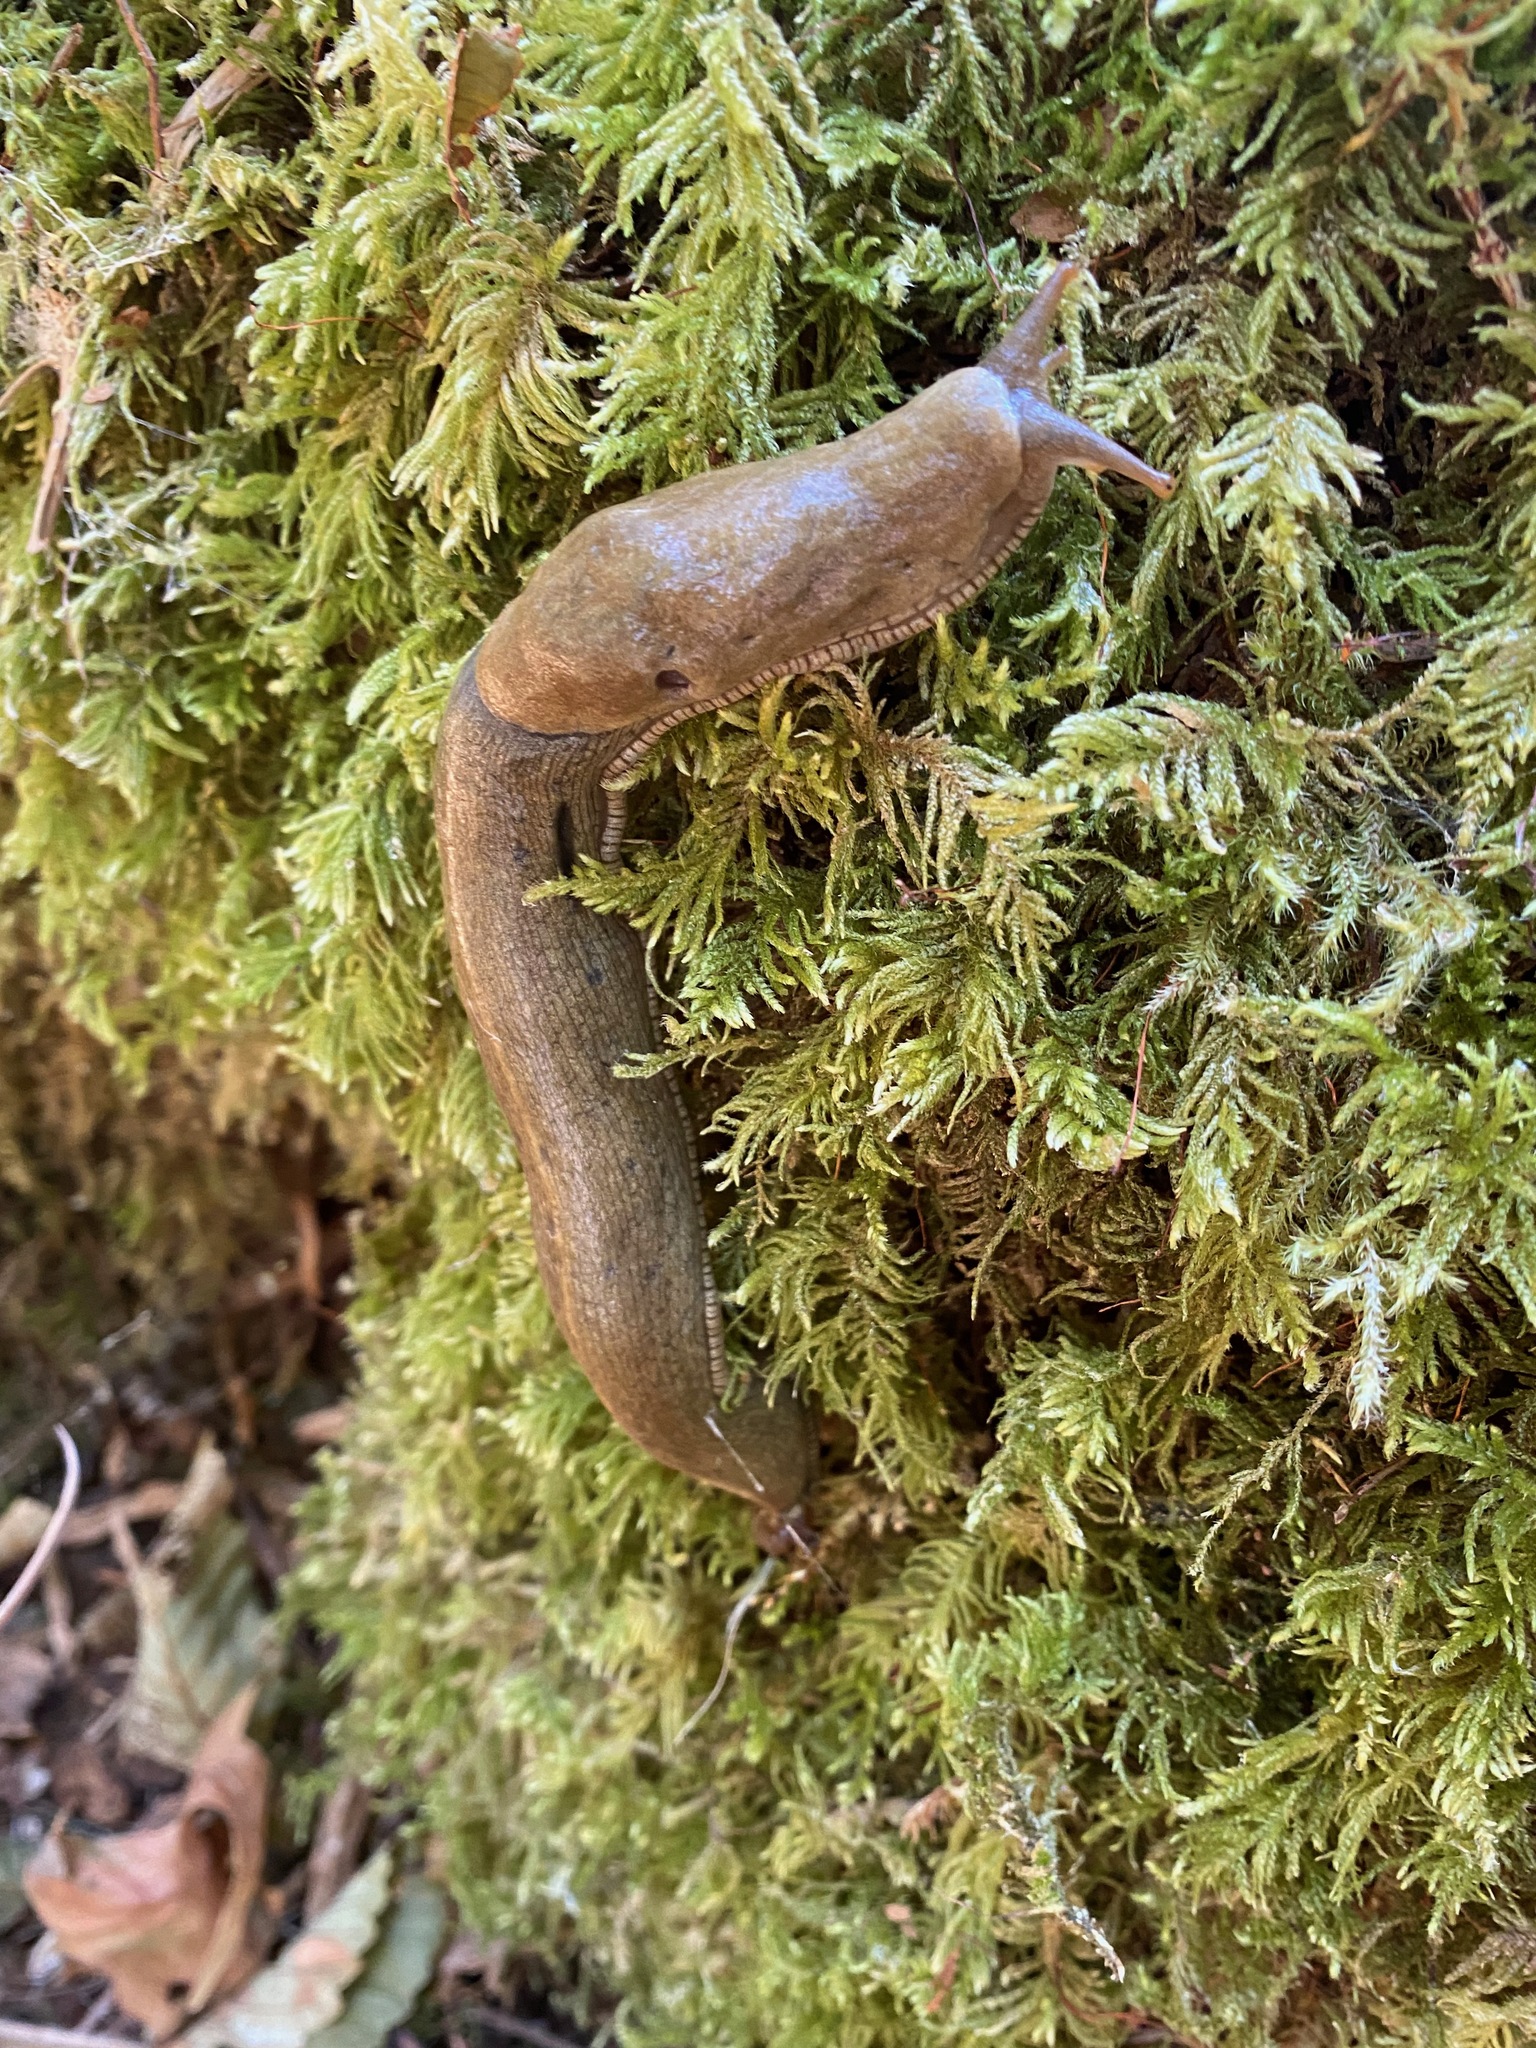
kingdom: Animalia
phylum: Mollusca
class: Gastropoda
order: Stylommatophora
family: Ariolimacidae
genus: Ariolimax
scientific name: Ariolimax columbianus
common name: Pacific banana slug
